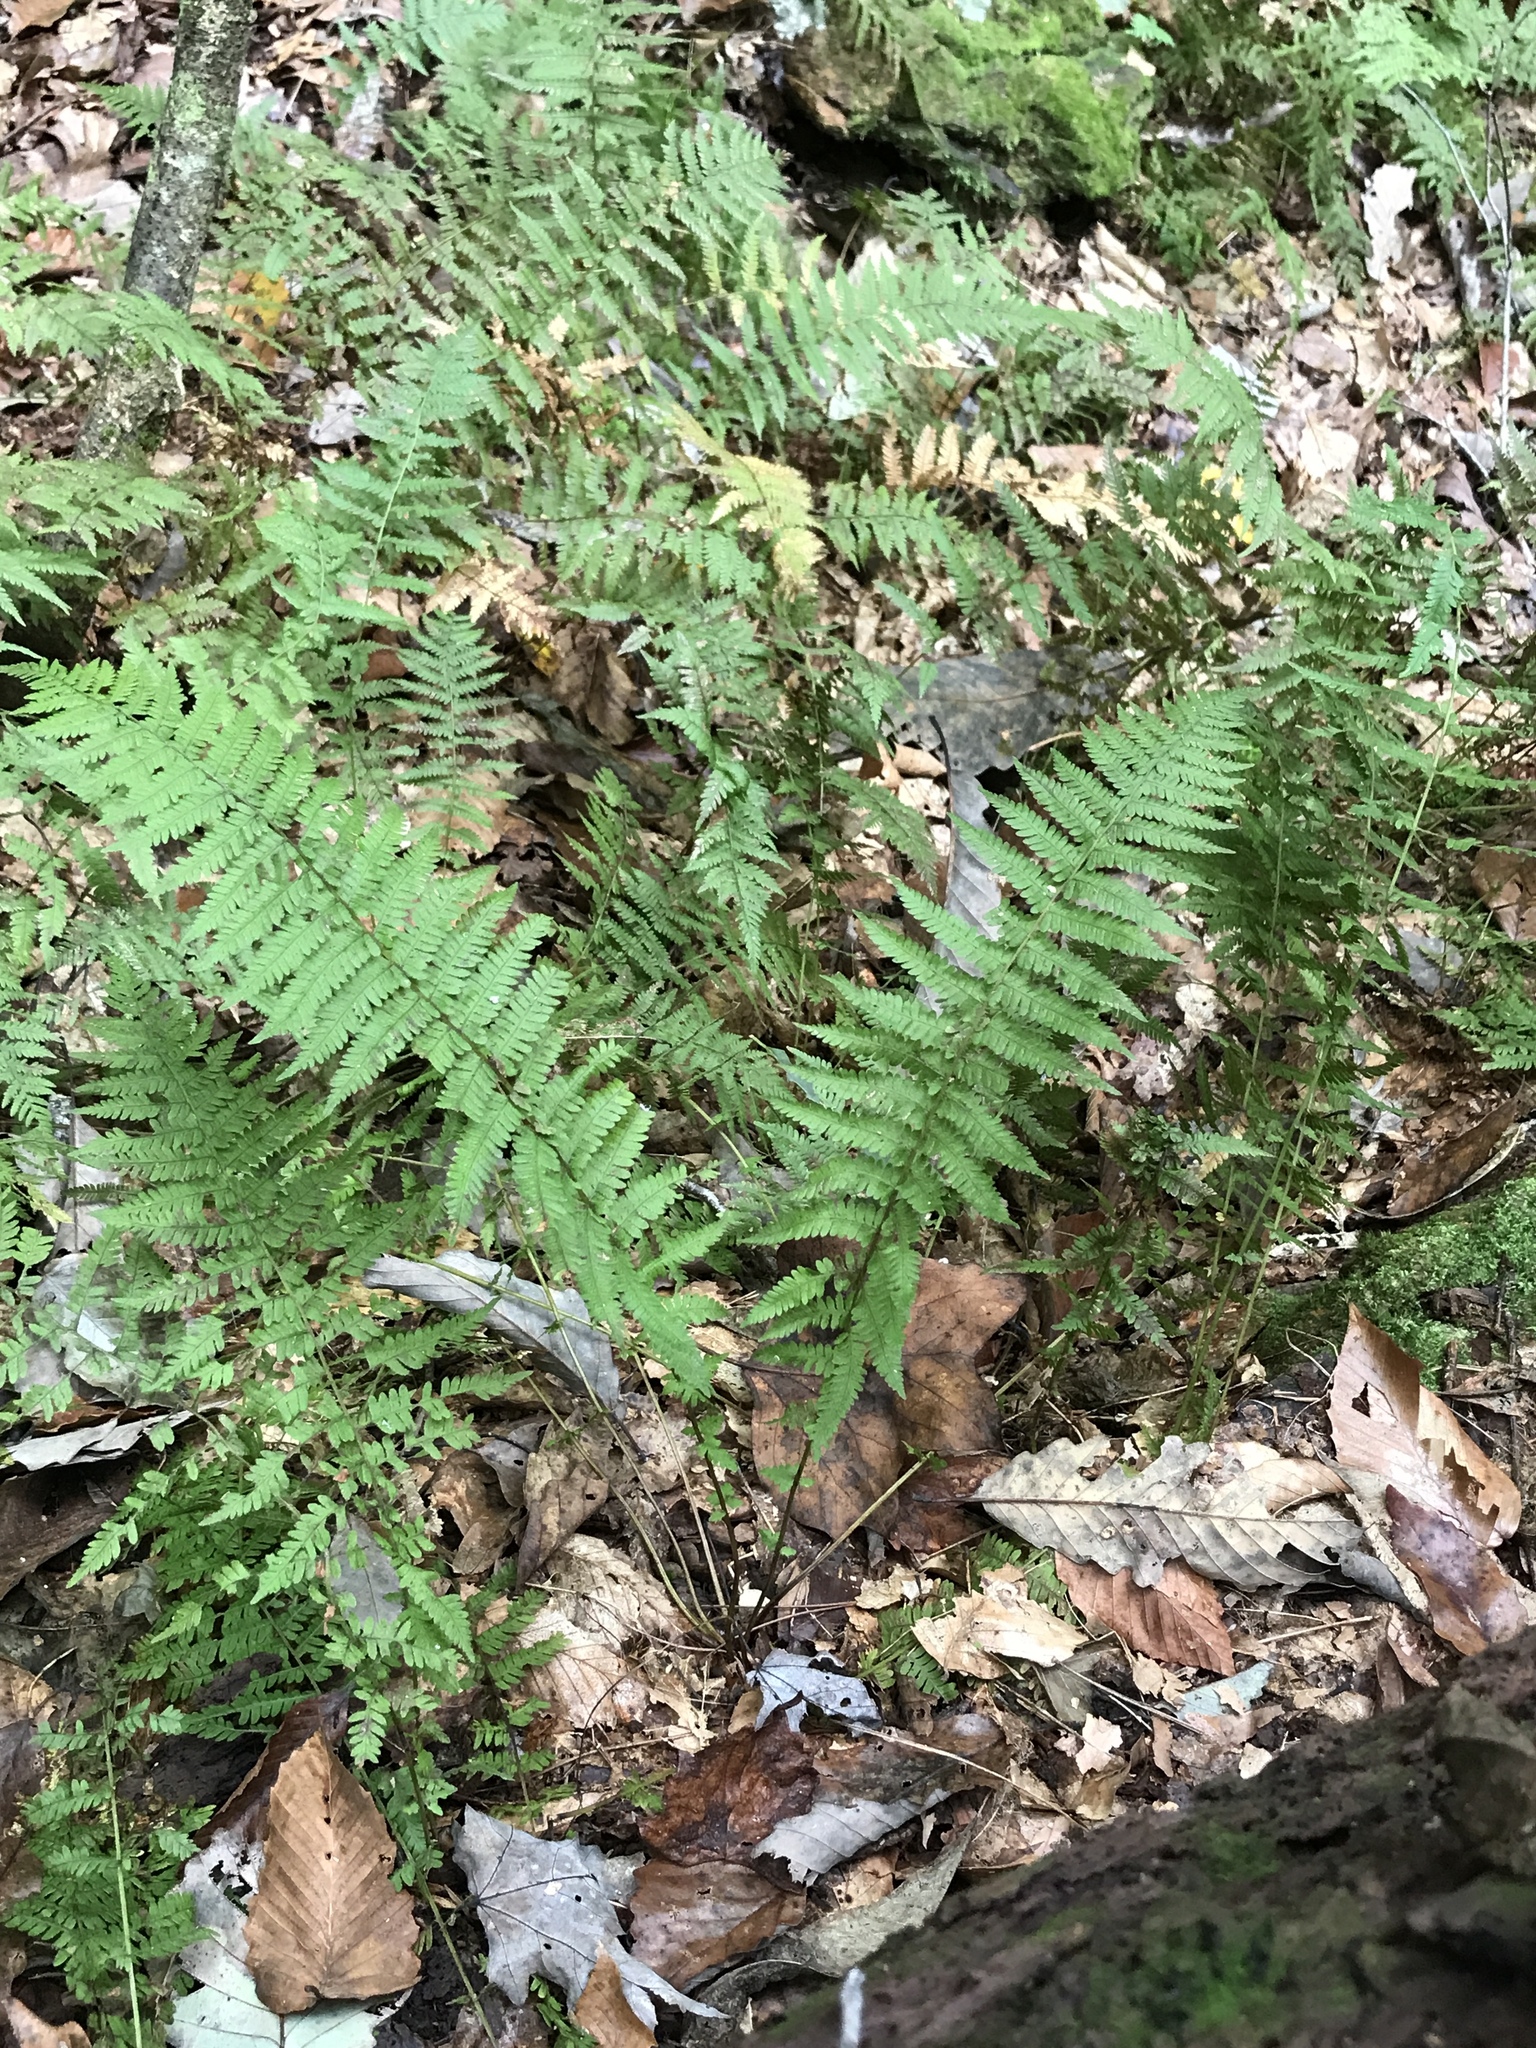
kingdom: Plantae
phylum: Tracheophyta
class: Polypodiopsida
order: Polypodiales
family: Thelypteridaceae
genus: Amauropelta
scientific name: Amauropelta noveboracensis
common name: New york fern
